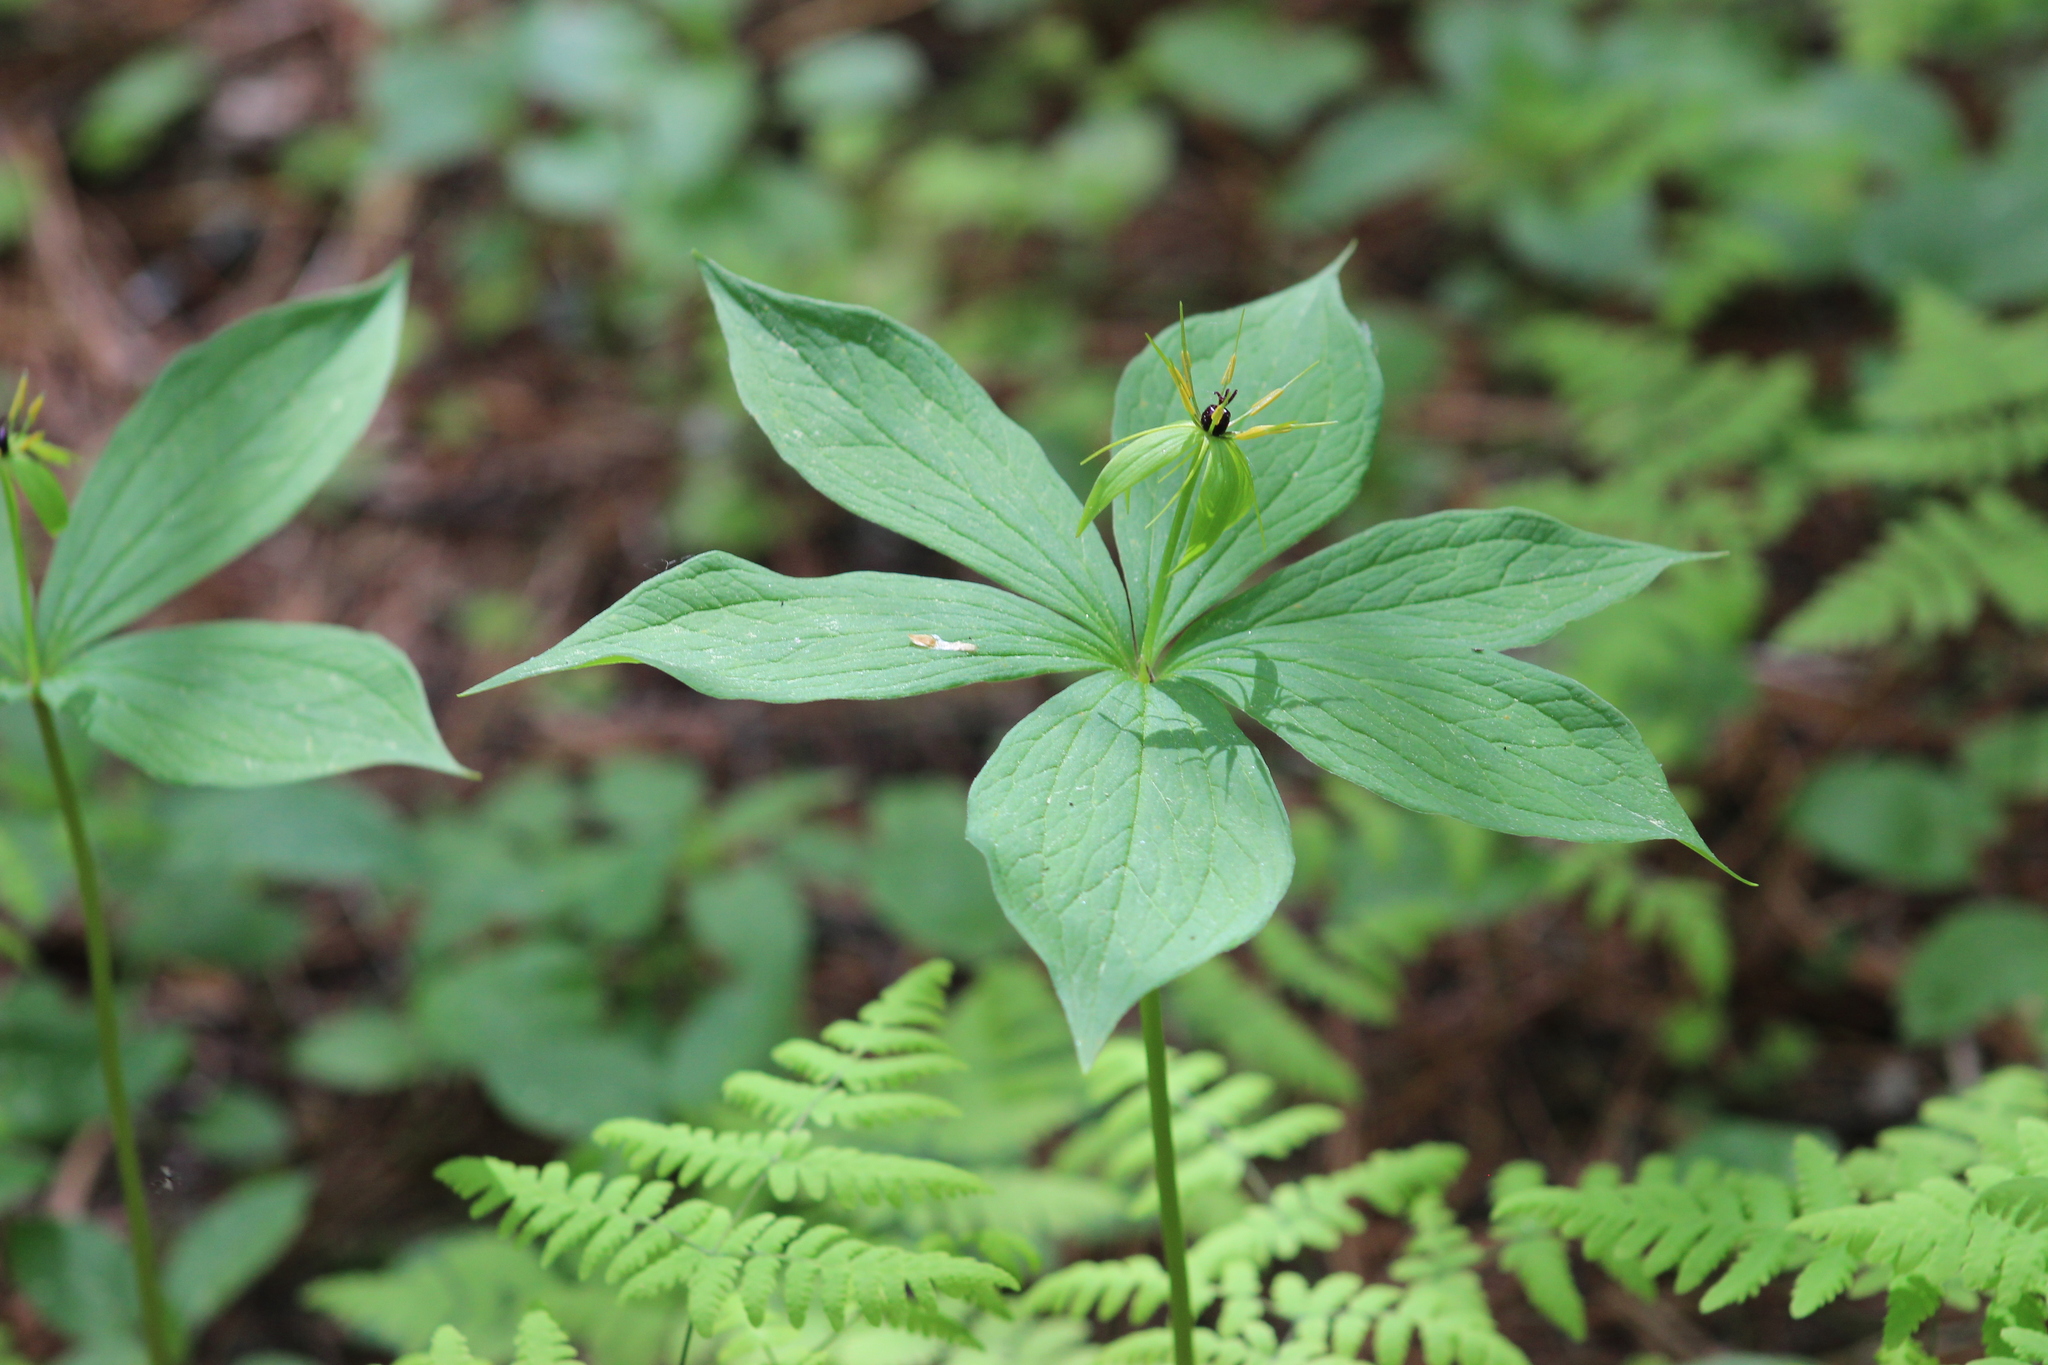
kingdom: Plantae
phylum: Tracheophyta
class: Liliopsida
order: Liliales
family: Melanthiaceae
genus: Paris
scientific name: Paris verticillata
